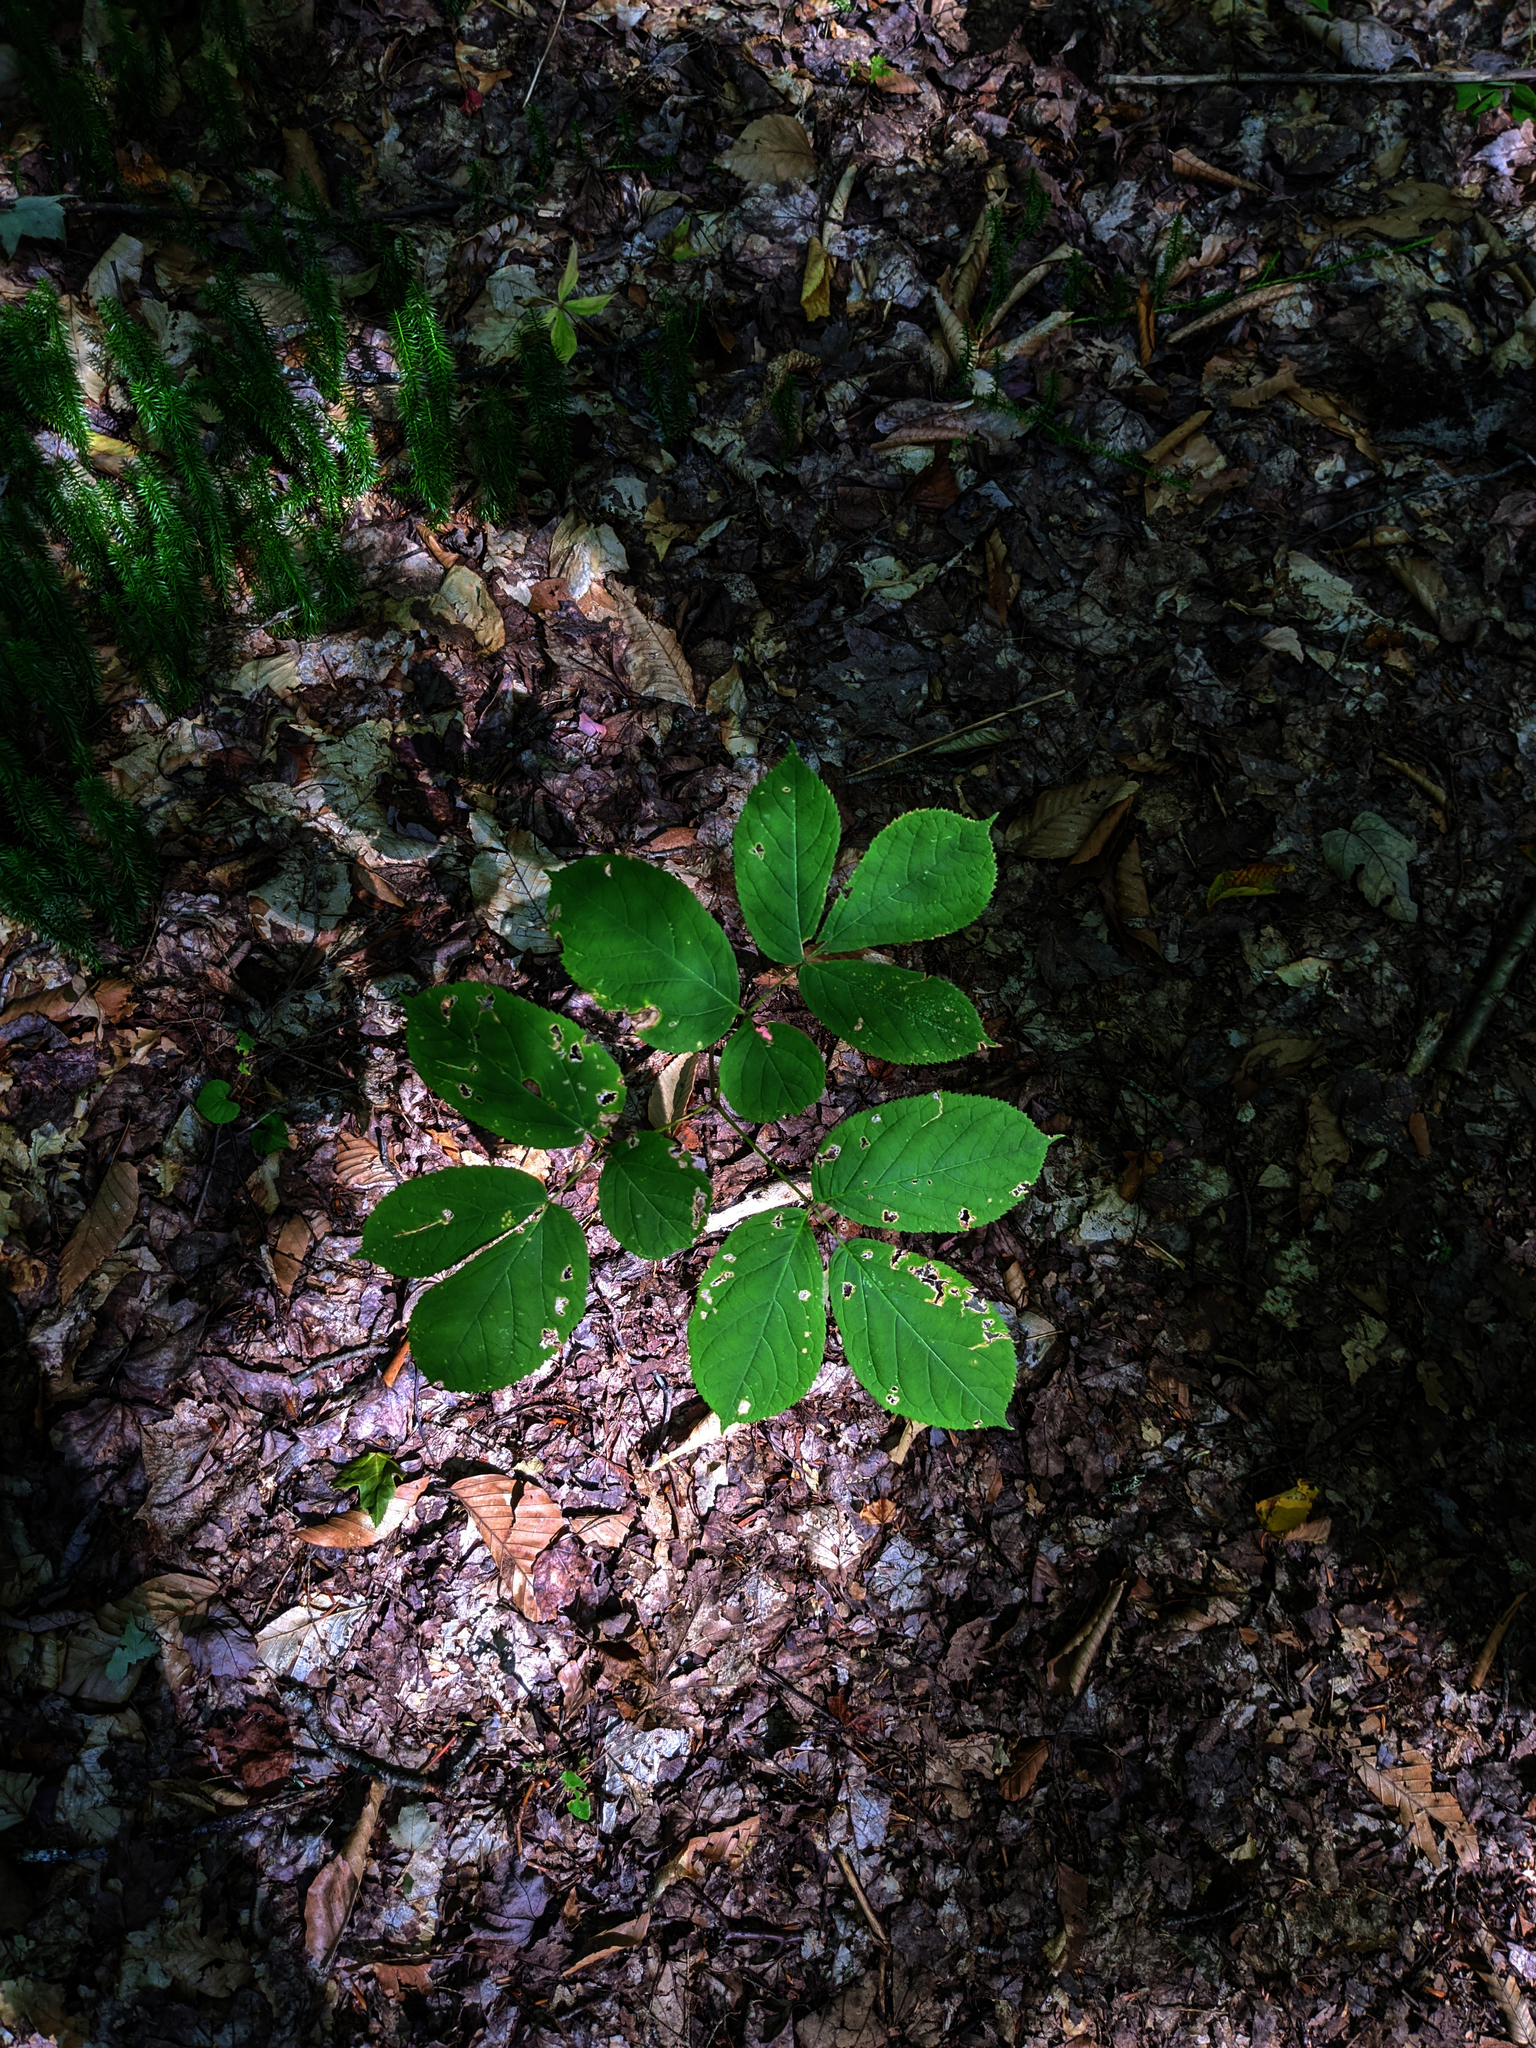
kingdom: Plantae
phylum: Tracheophyta
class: Magnoliopsida
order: Apiales
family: Araliaceae
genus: Aralia
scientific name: Aralia nudicaulis
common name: Wild sarsaparilla
